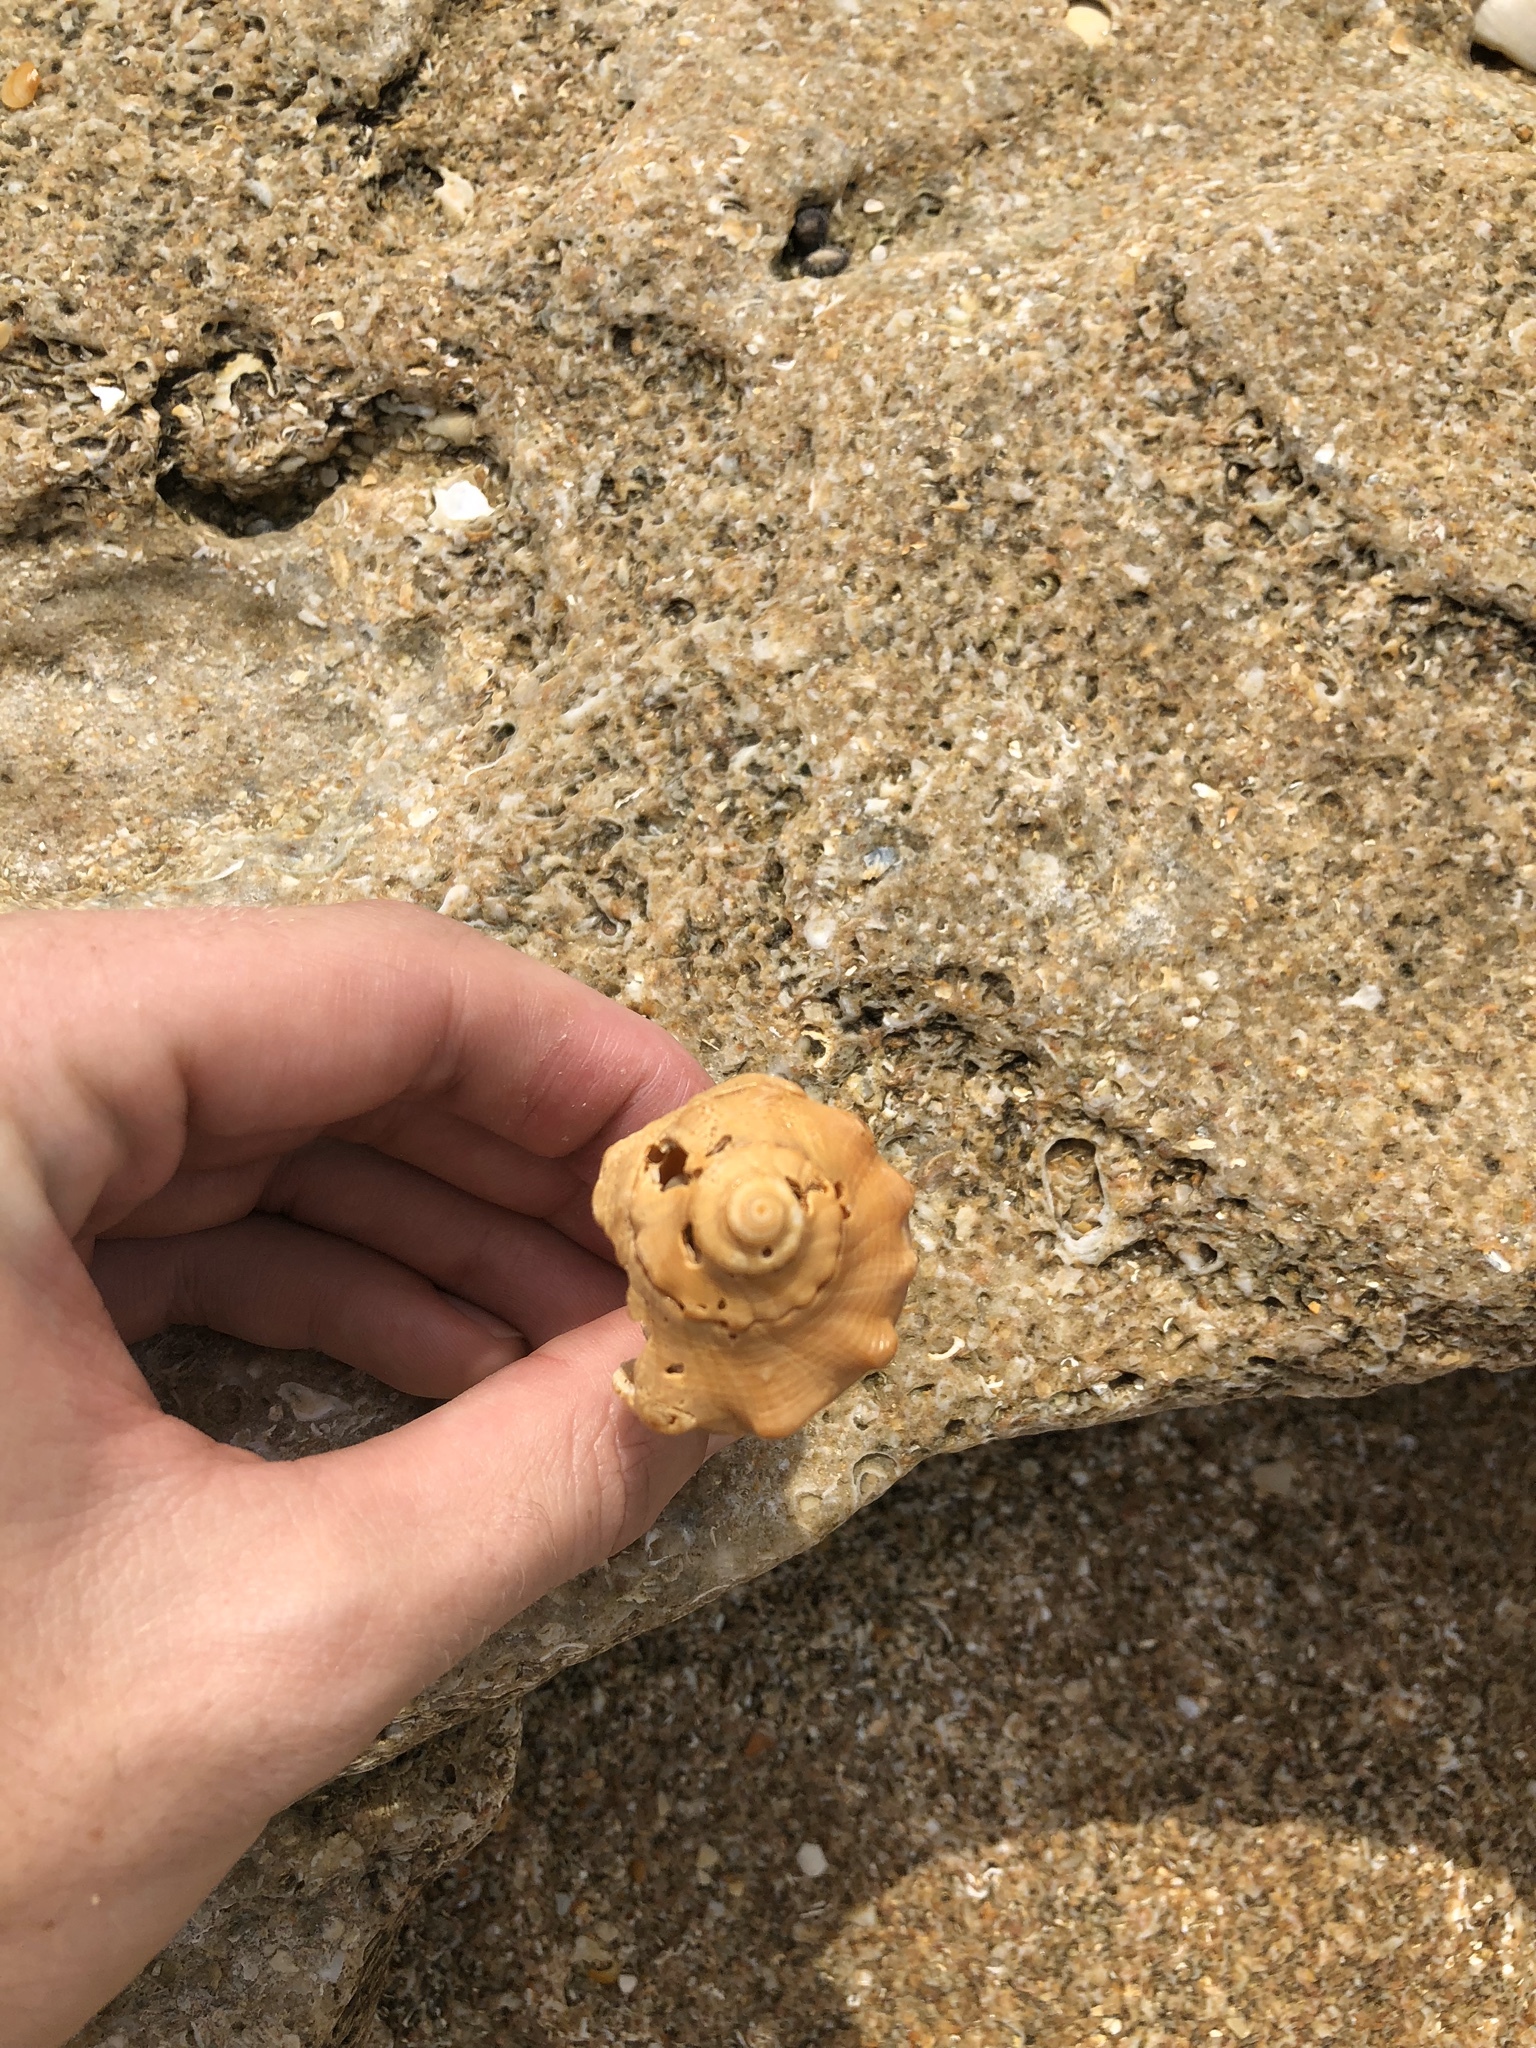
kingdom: Animalia
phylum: Mollusca
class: Gastropoda
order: Neogastropoda
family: Busyconidae
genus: Sinistrofulgur
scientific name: Sinistrofulgur sinistrum
